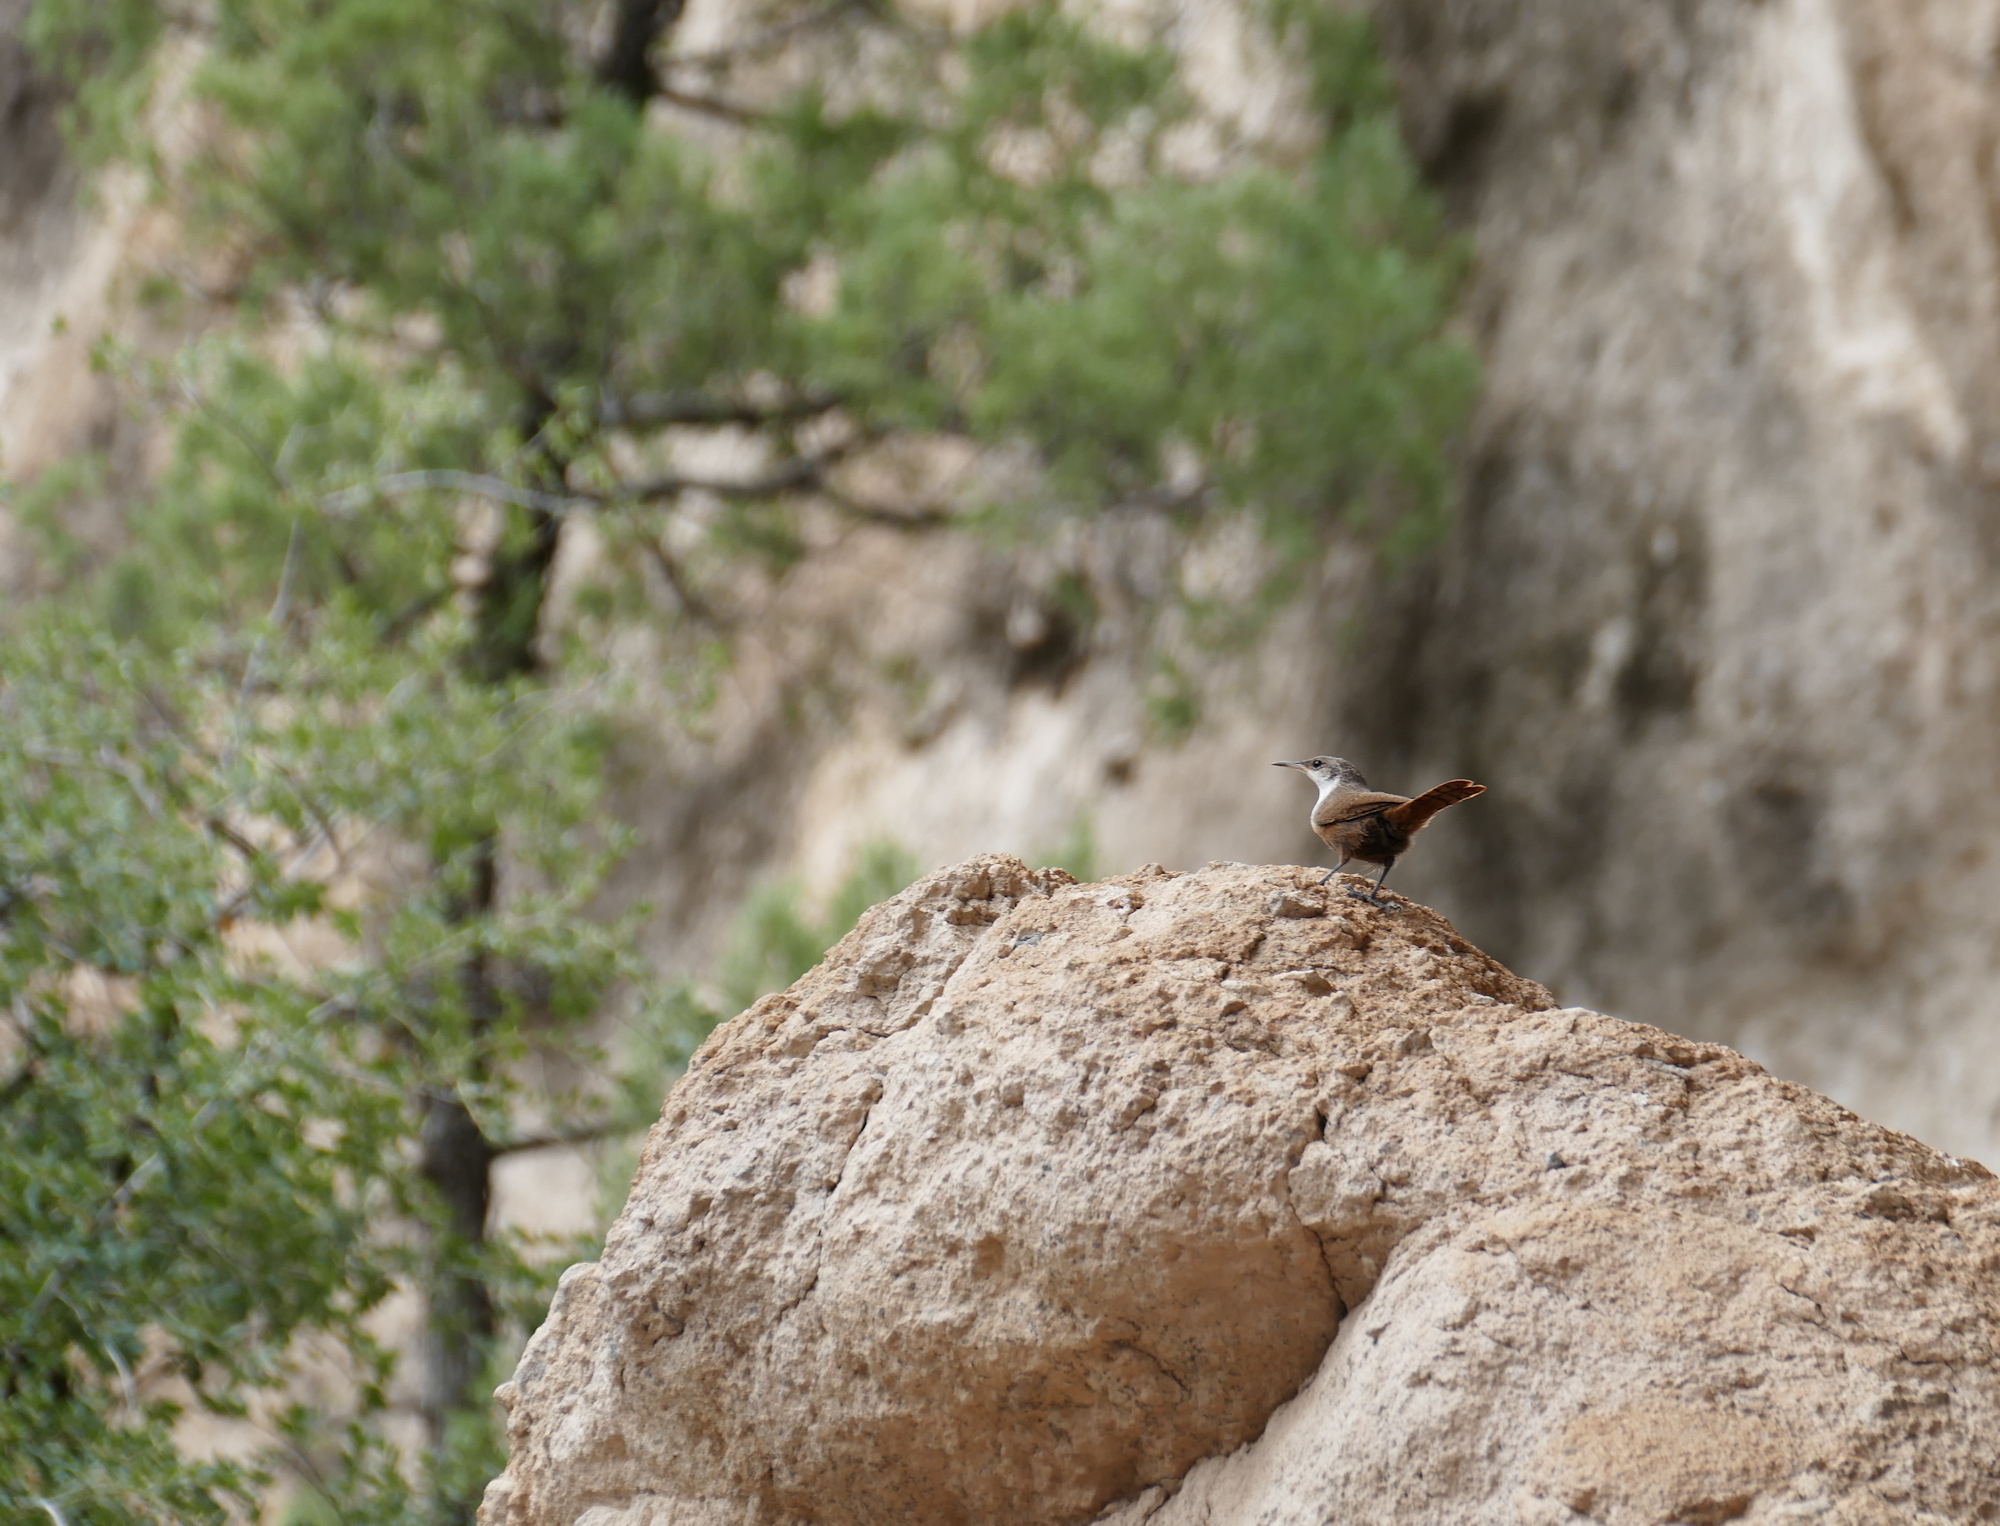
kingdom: Animalia
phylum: Chordata
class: Aves
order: Passeriformes
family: Troglodytidae
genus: Catherpes
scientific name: Catherpes mexicanus
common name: Canyon wren
